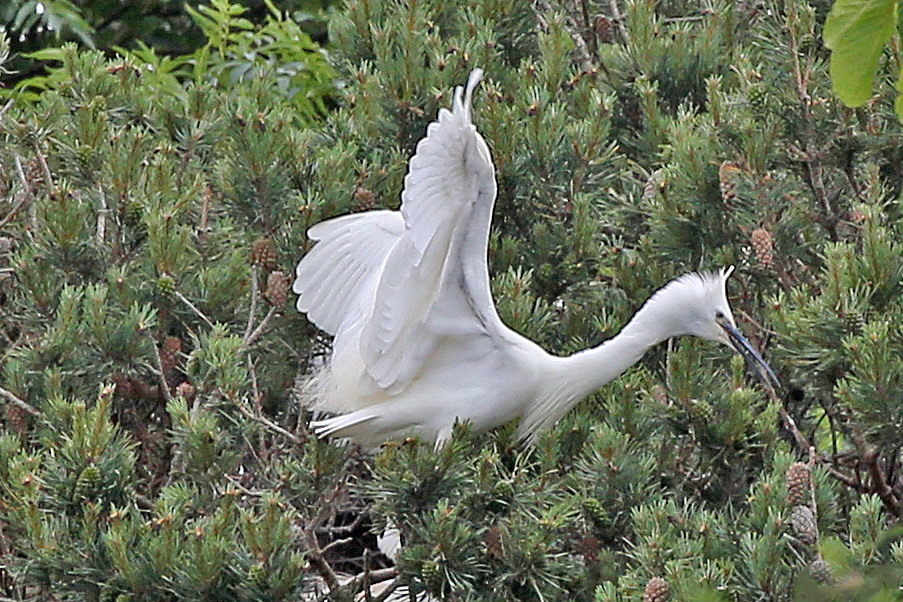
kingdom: Animalia
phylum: Chordata
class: Aves
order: Pelecaniformes
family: Ardeidae
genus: Egretta
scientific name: Egretta garzetta
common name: Little egret
